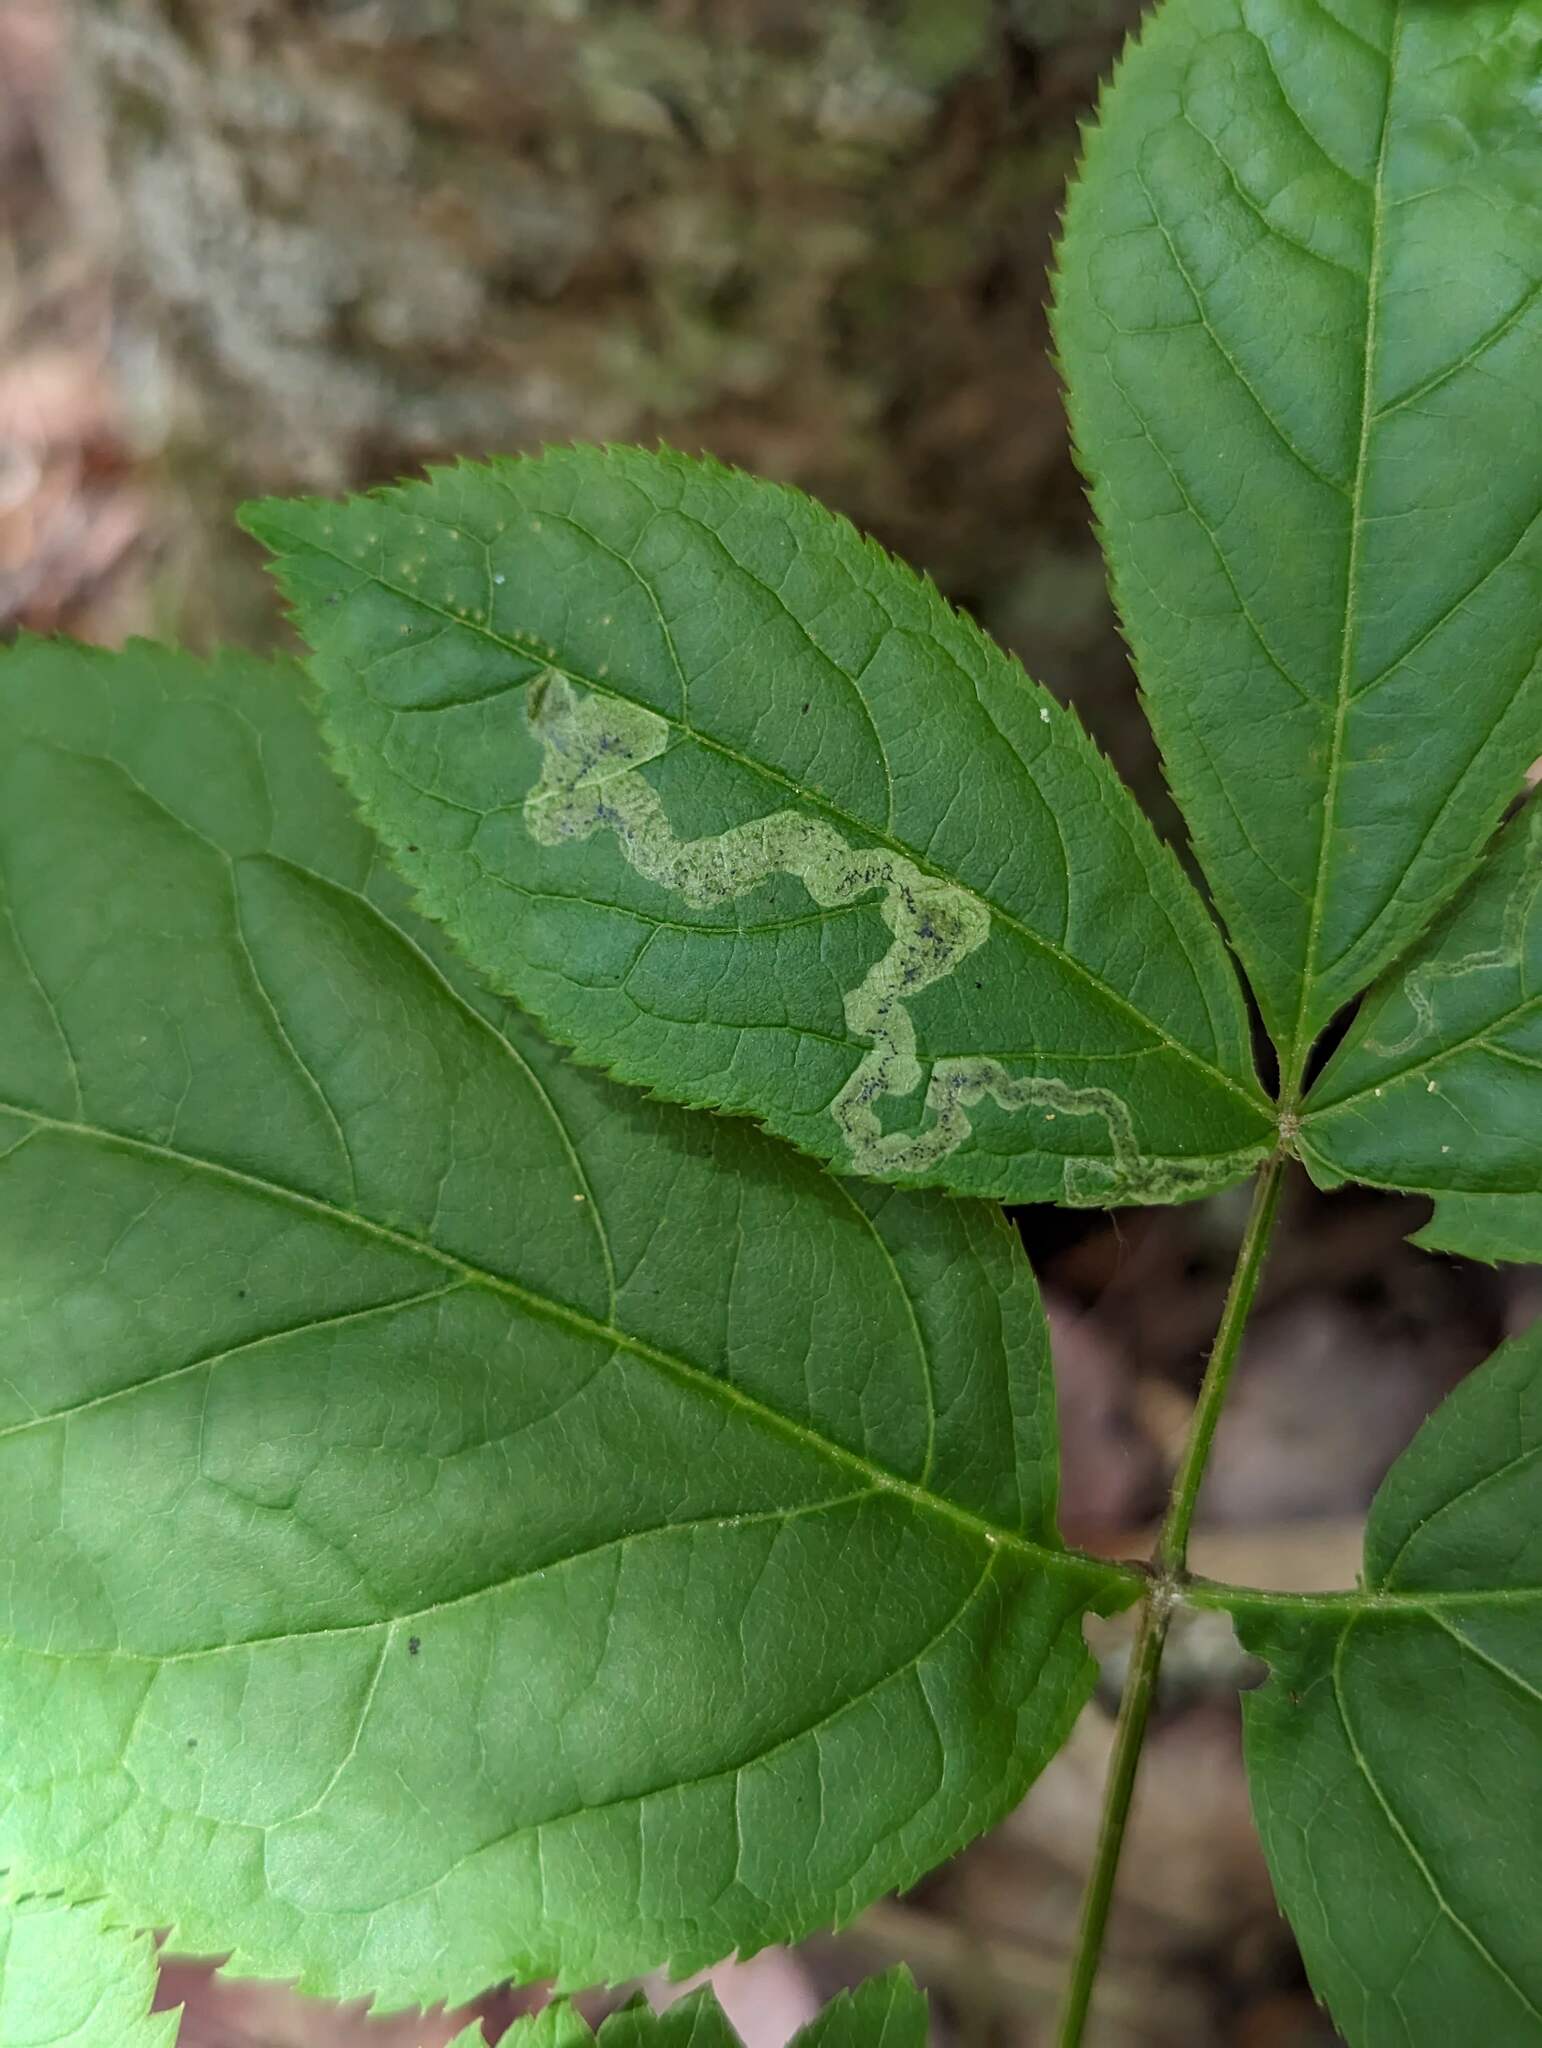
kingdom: Animalia
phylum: Arthropoda
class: Insecta
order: Diptera
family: Agromyzidae
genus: Phytomyza
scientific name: Phytomyza aralivora
